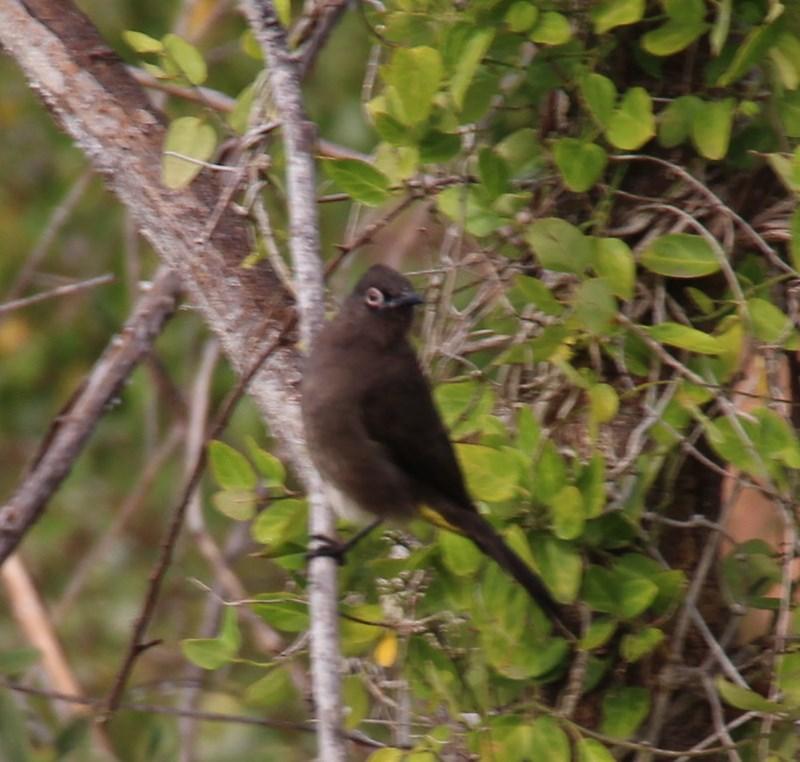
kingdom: Animalia
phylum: Chordata
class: Aves
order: Passeriformes
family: Pycnonotidae
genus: Pycnonotus
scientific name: Pycnonotus capensis
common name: Cape bulbul
